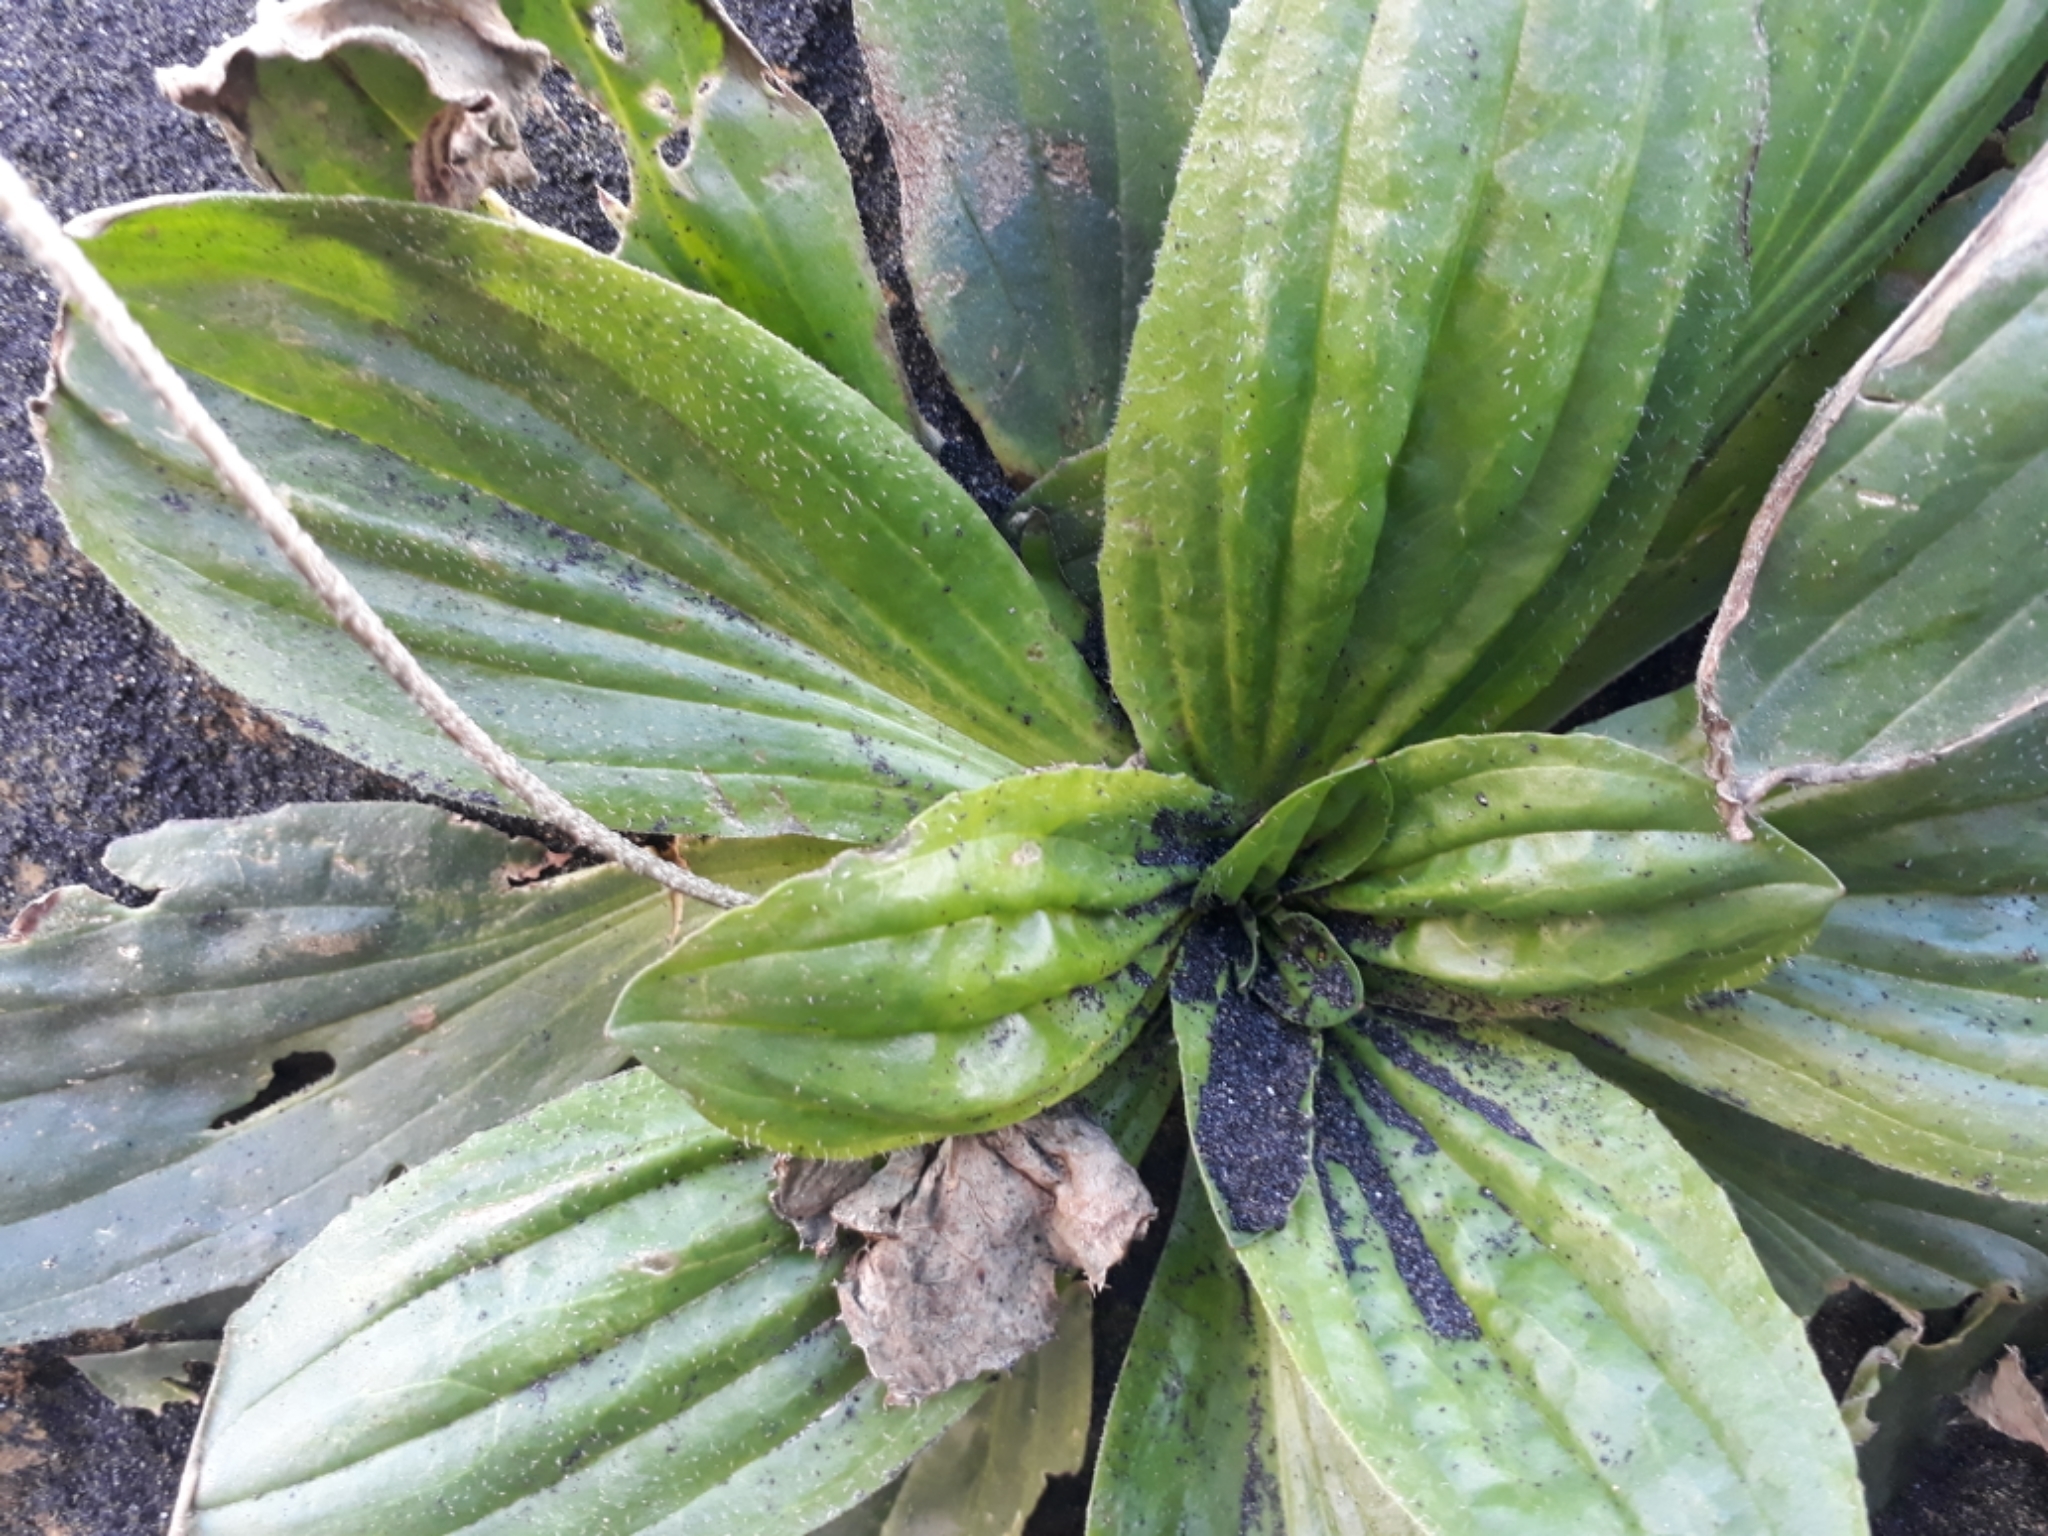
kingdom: Plantae
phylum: Tracheophyta
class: Magnoliopsida
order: Lamiales
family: Plantaginaceae
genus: Plantago
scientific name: Plantago australis
